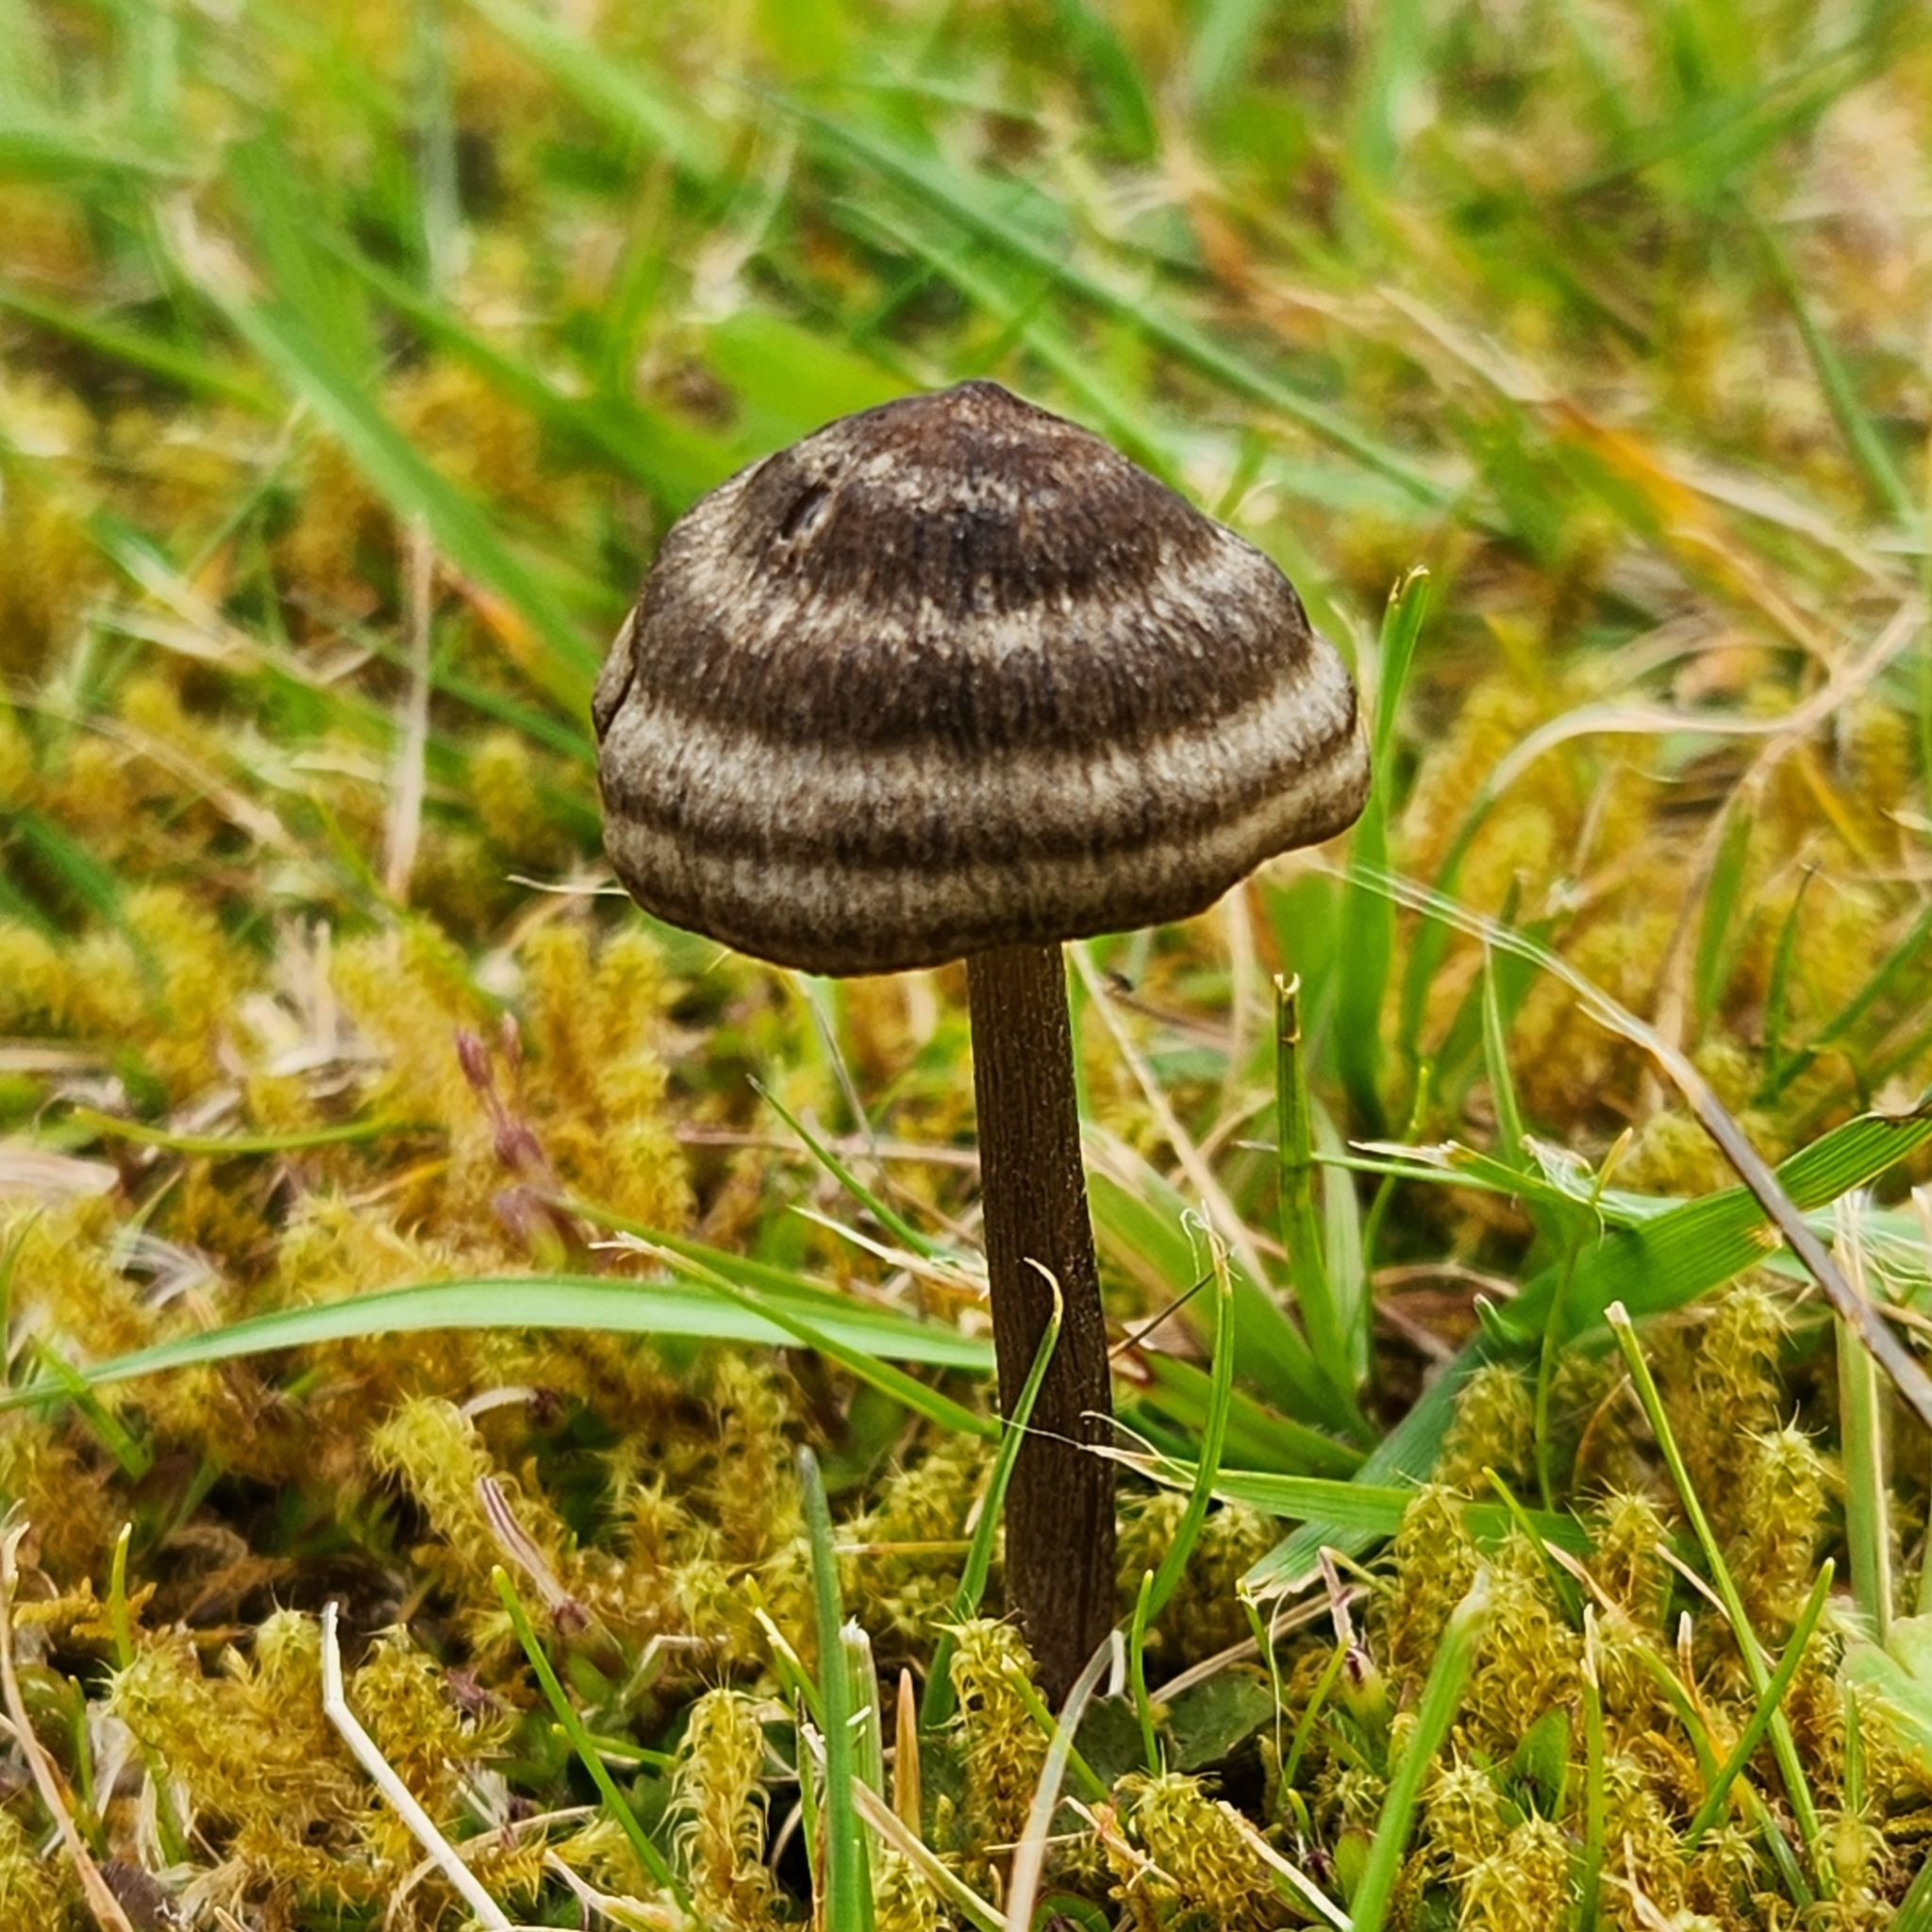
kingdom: Fungi
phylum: Basidiomycota
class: Agaricomycetes
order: Agaricales
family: Entolomataceae
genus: Entoloma
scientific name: Entoloma perzonatum
